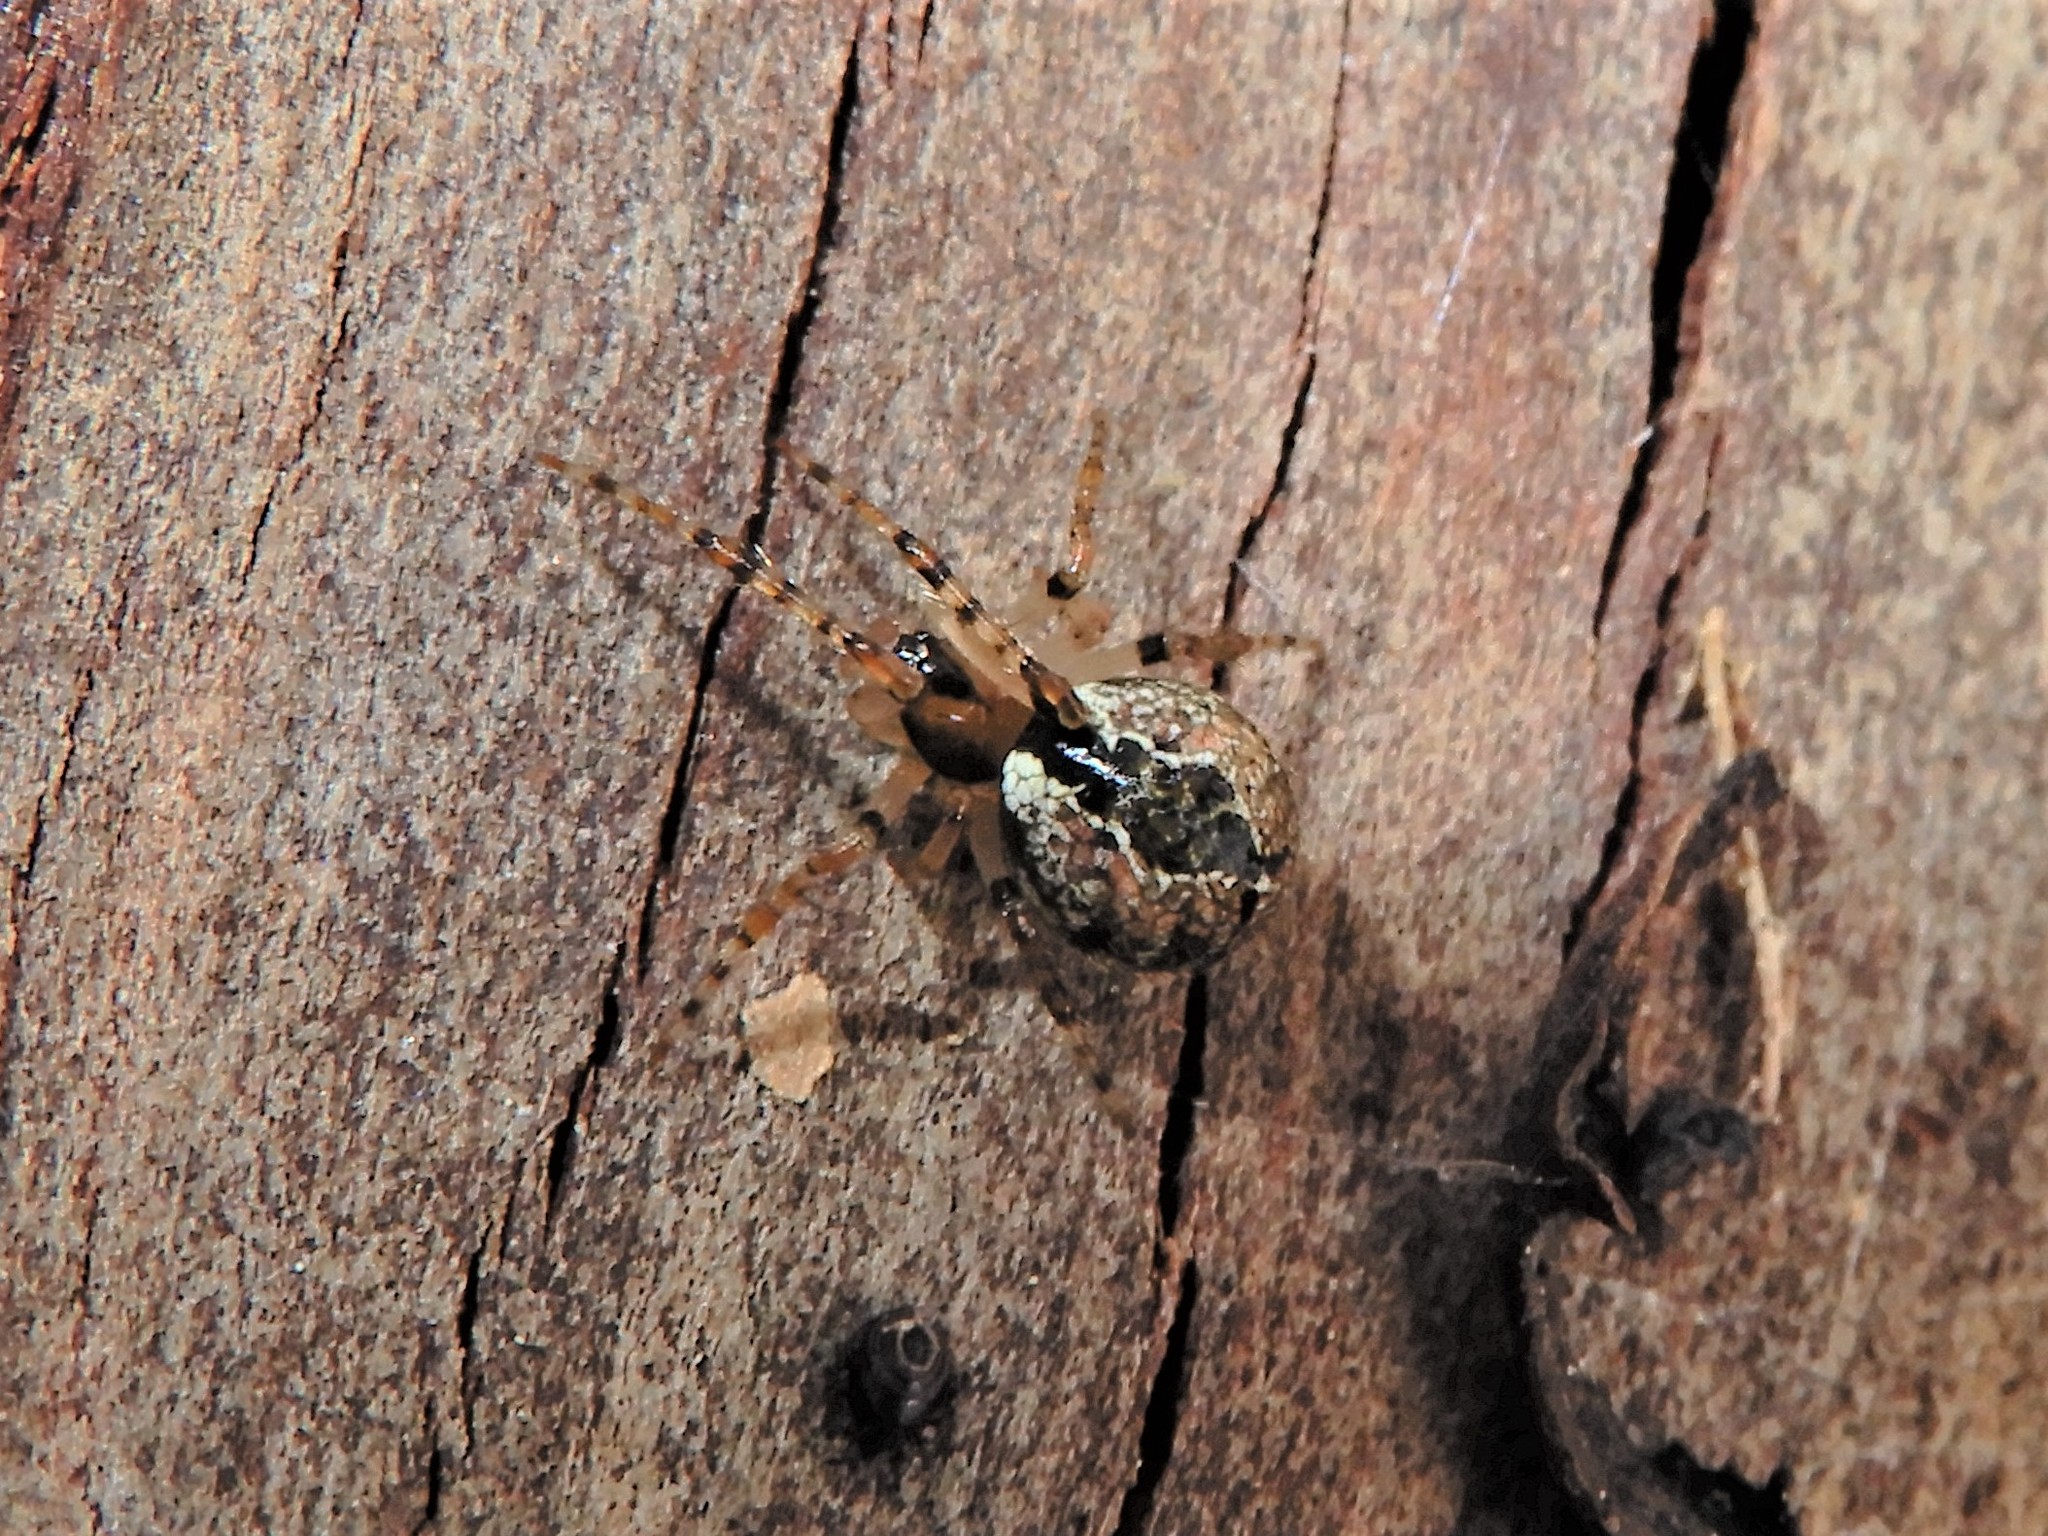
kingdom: Animalia
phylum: Arthropoda
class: Arachnida
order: Araneae
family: Theridiidae
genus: Cryptachaea
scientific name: Cryptachaea veruculata
